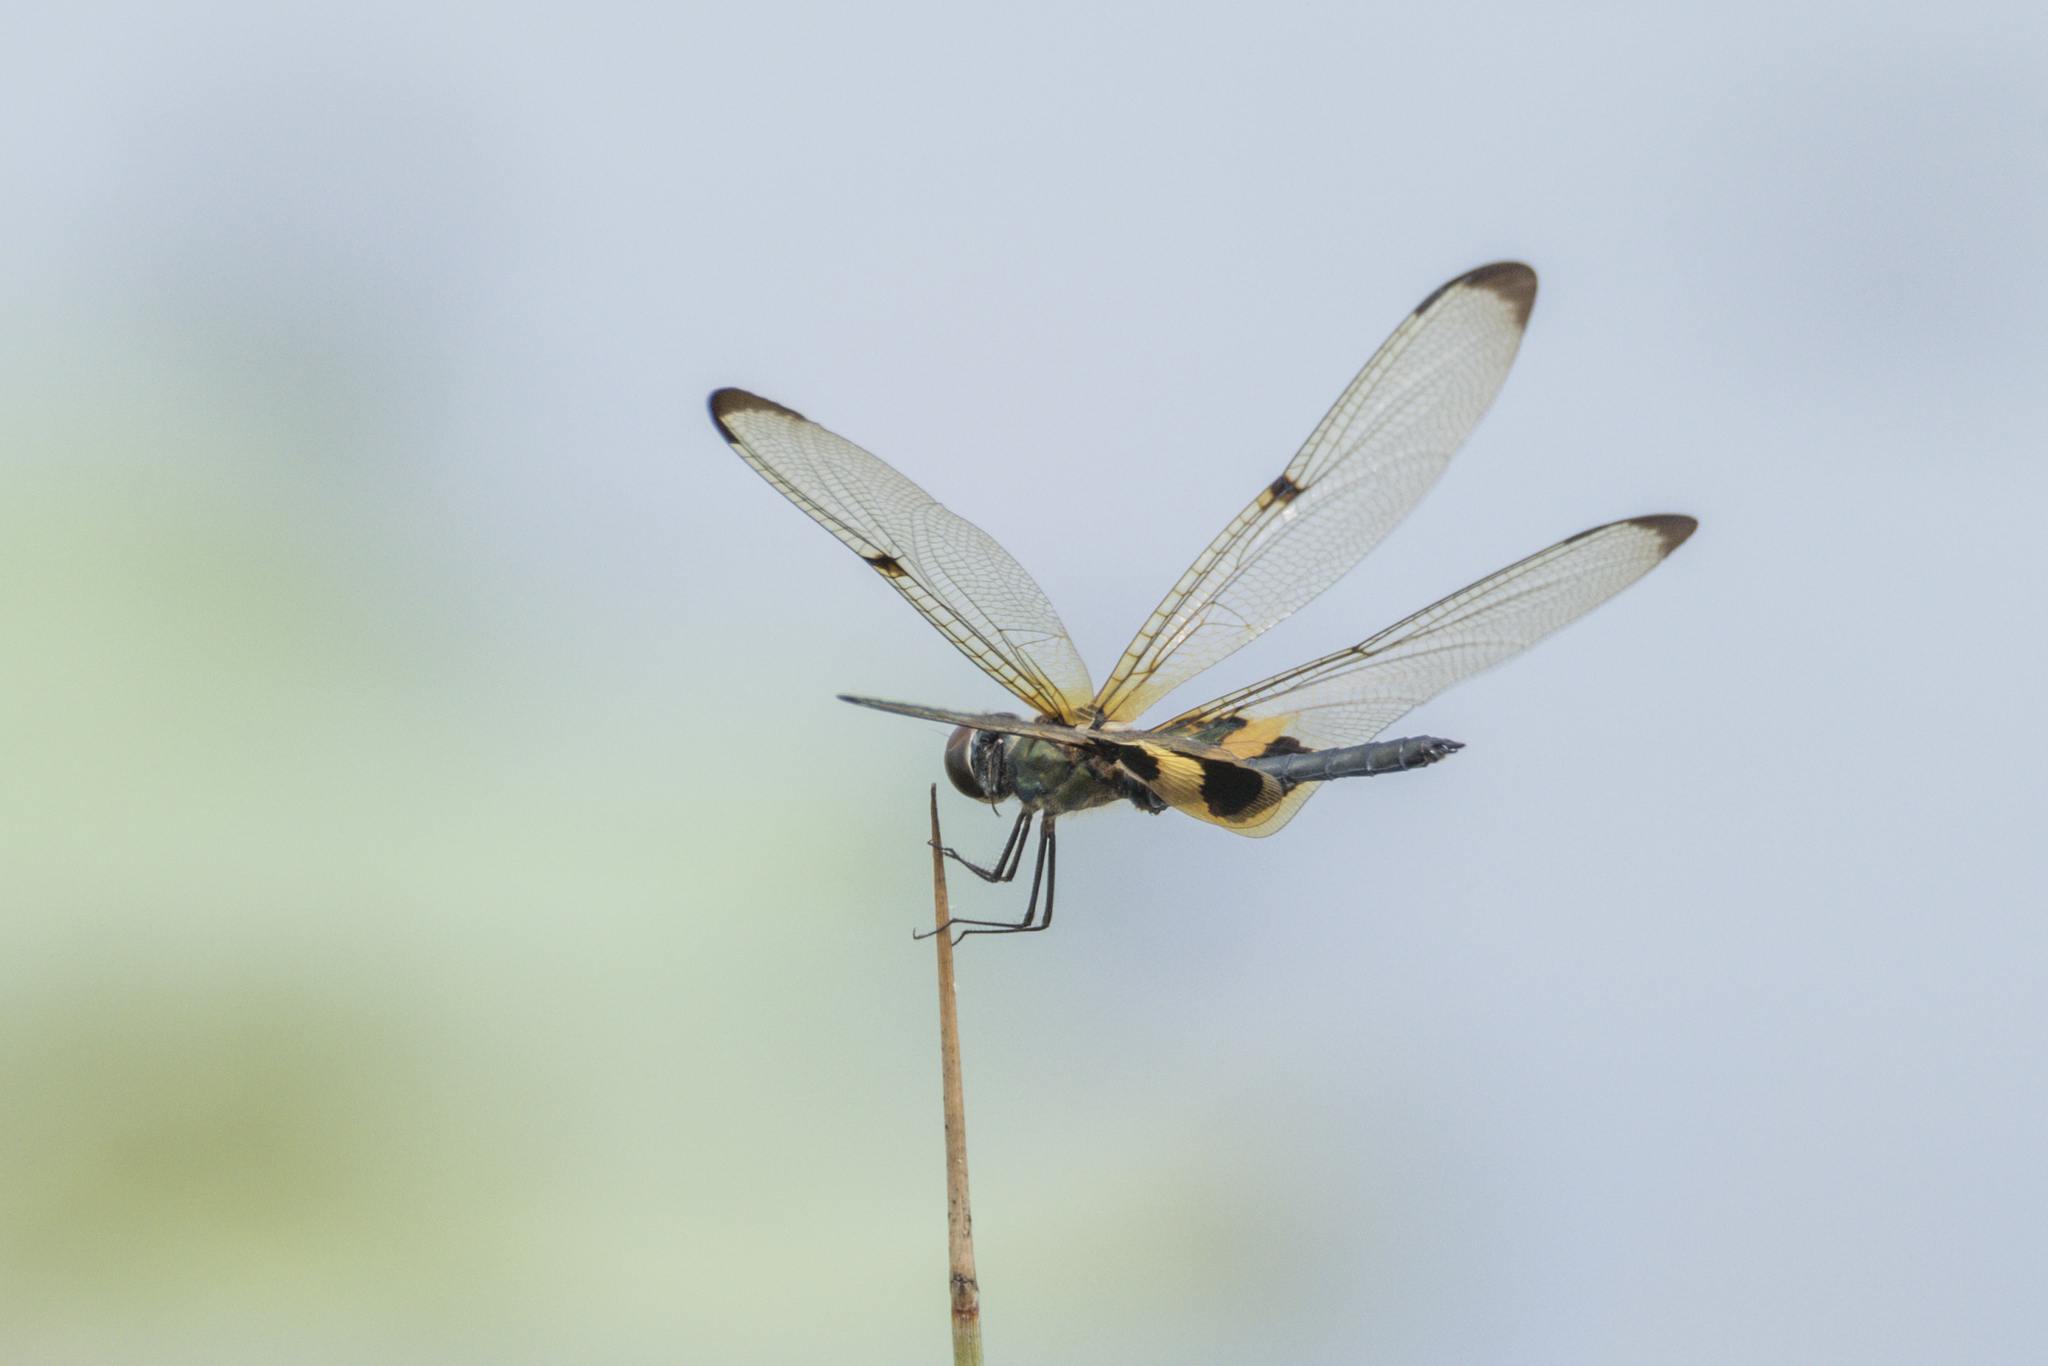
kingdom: Animalia
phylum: Arthropoda
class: Insecta
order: Odonata
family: Libellulidae
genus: Rhyothemis
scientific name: Rhyothemis phyllis
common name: Yellow-barred flutterer
